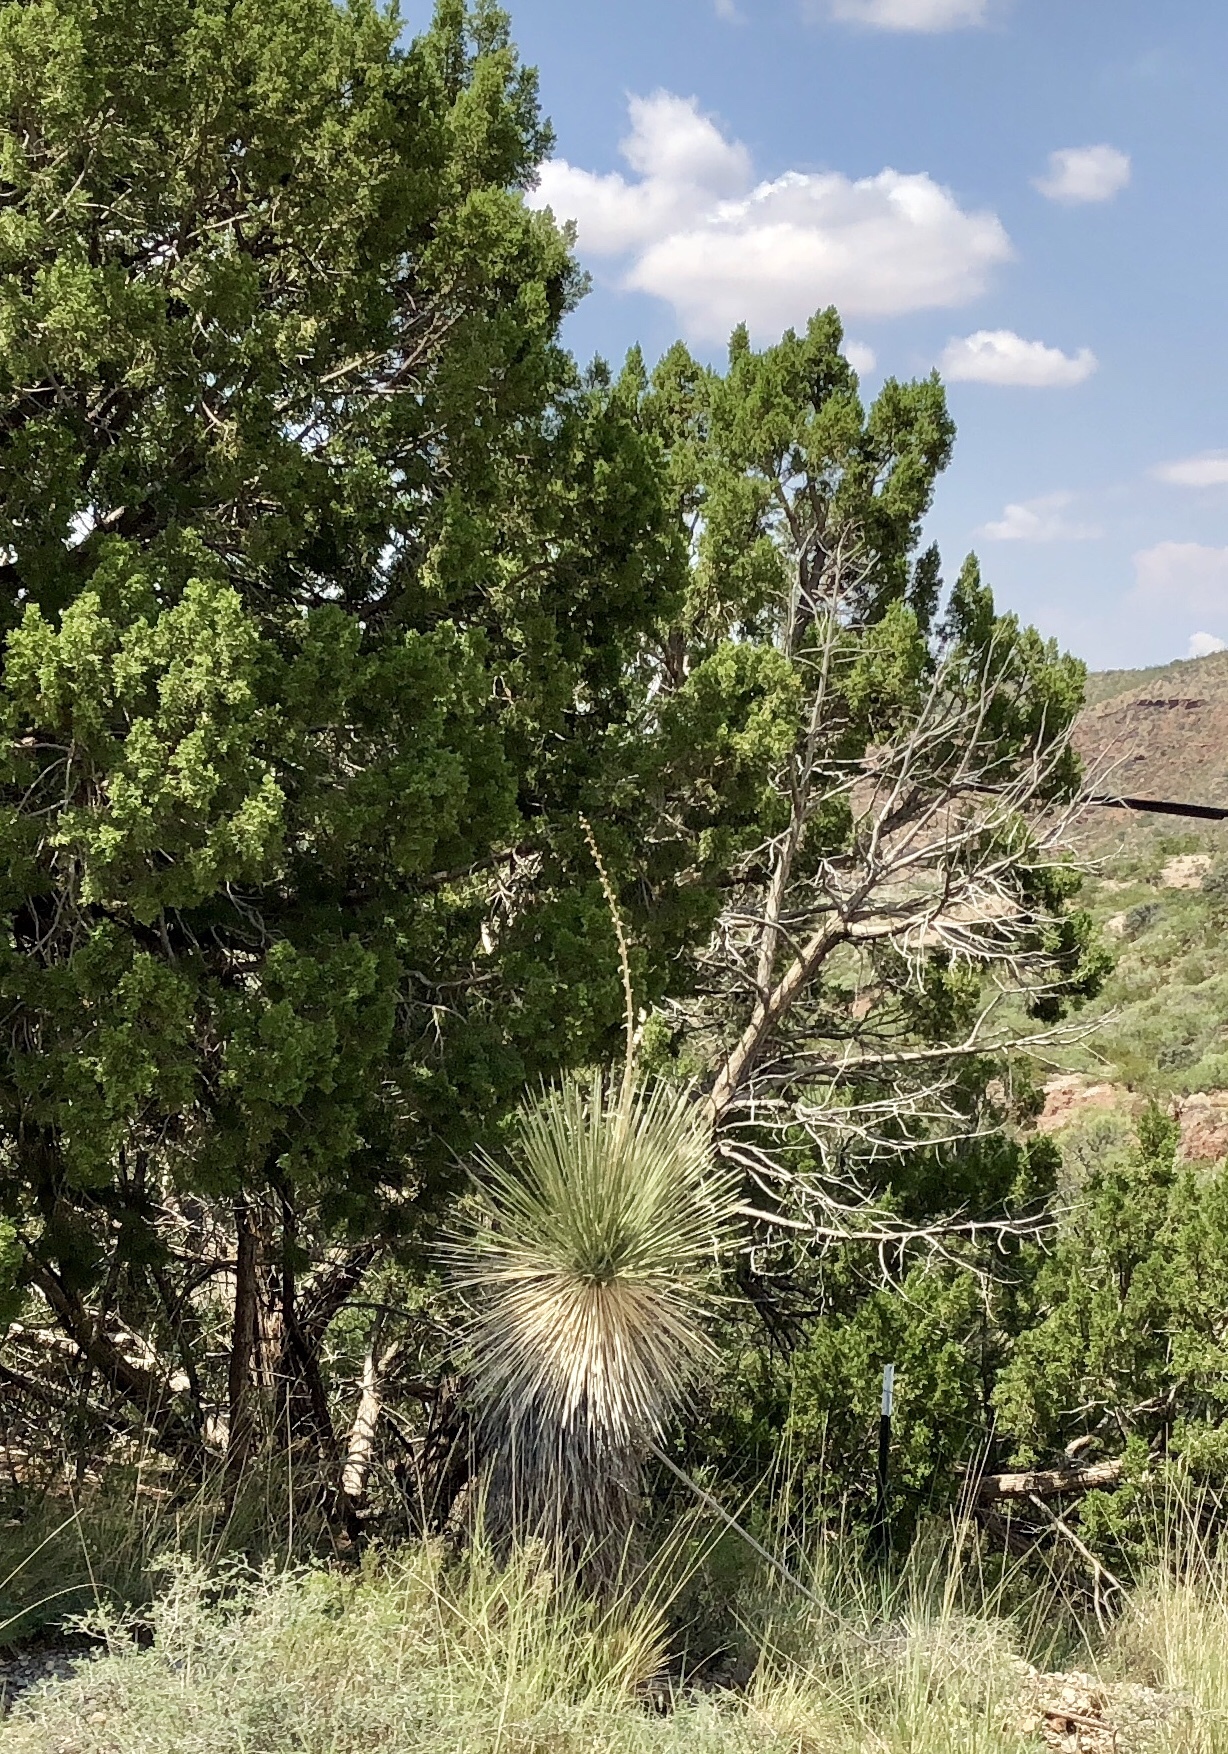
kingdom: Plantae
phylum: Tracheophyta
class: Liliopsida
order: Asparagales
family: Asparagaceae
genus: Yucca
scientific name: Yucca elata
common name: Palmella
